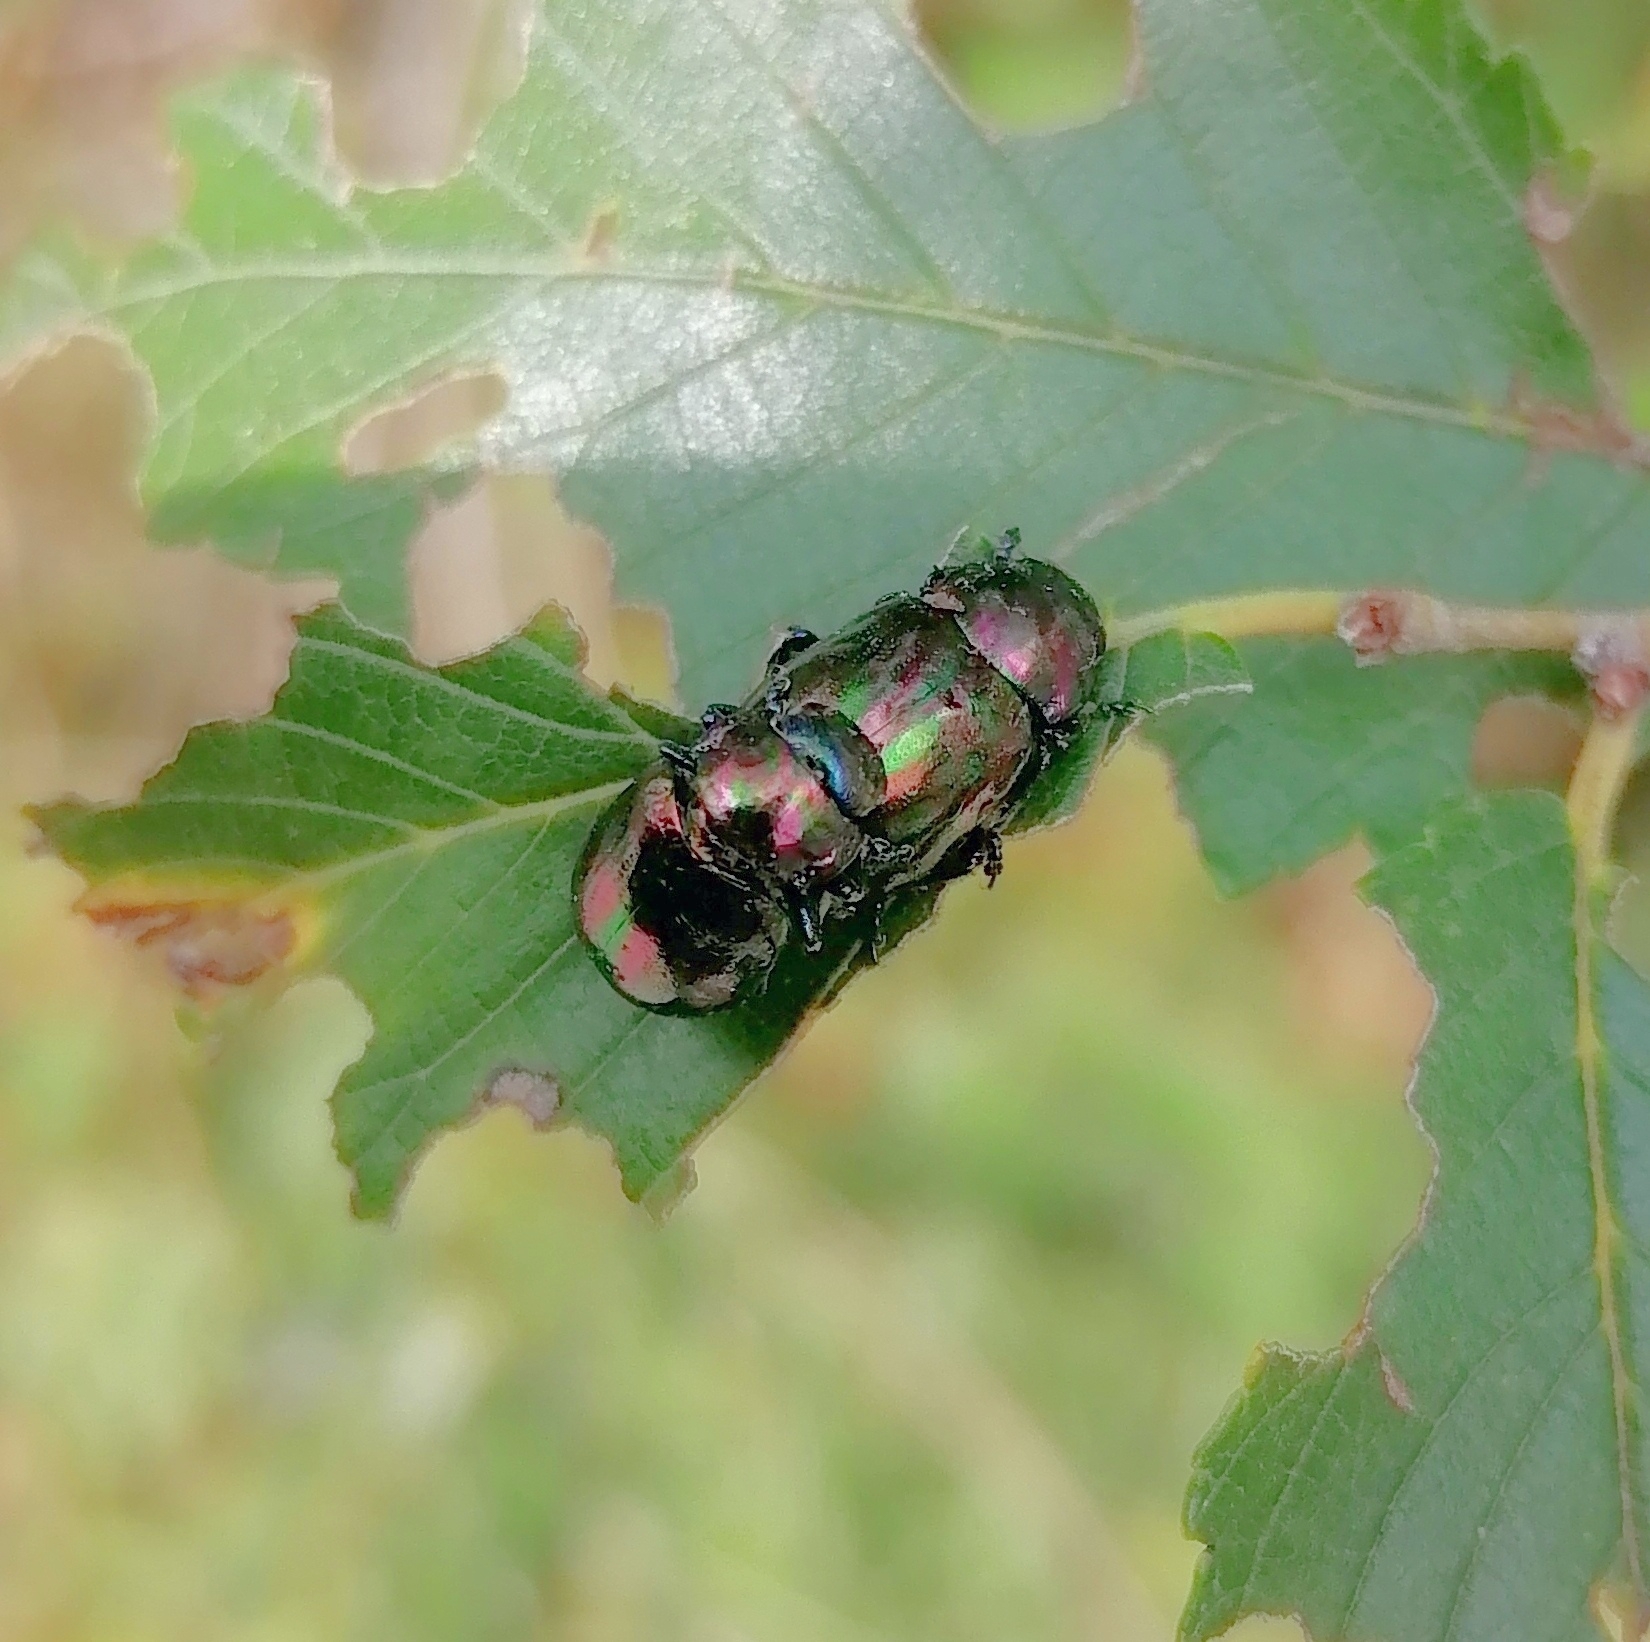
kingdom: Animalia
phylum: Arthropoda
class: Insecta
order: Coleoptera
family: Chrysomelidae
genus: Ambrostoma
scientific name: Ambrostoma
